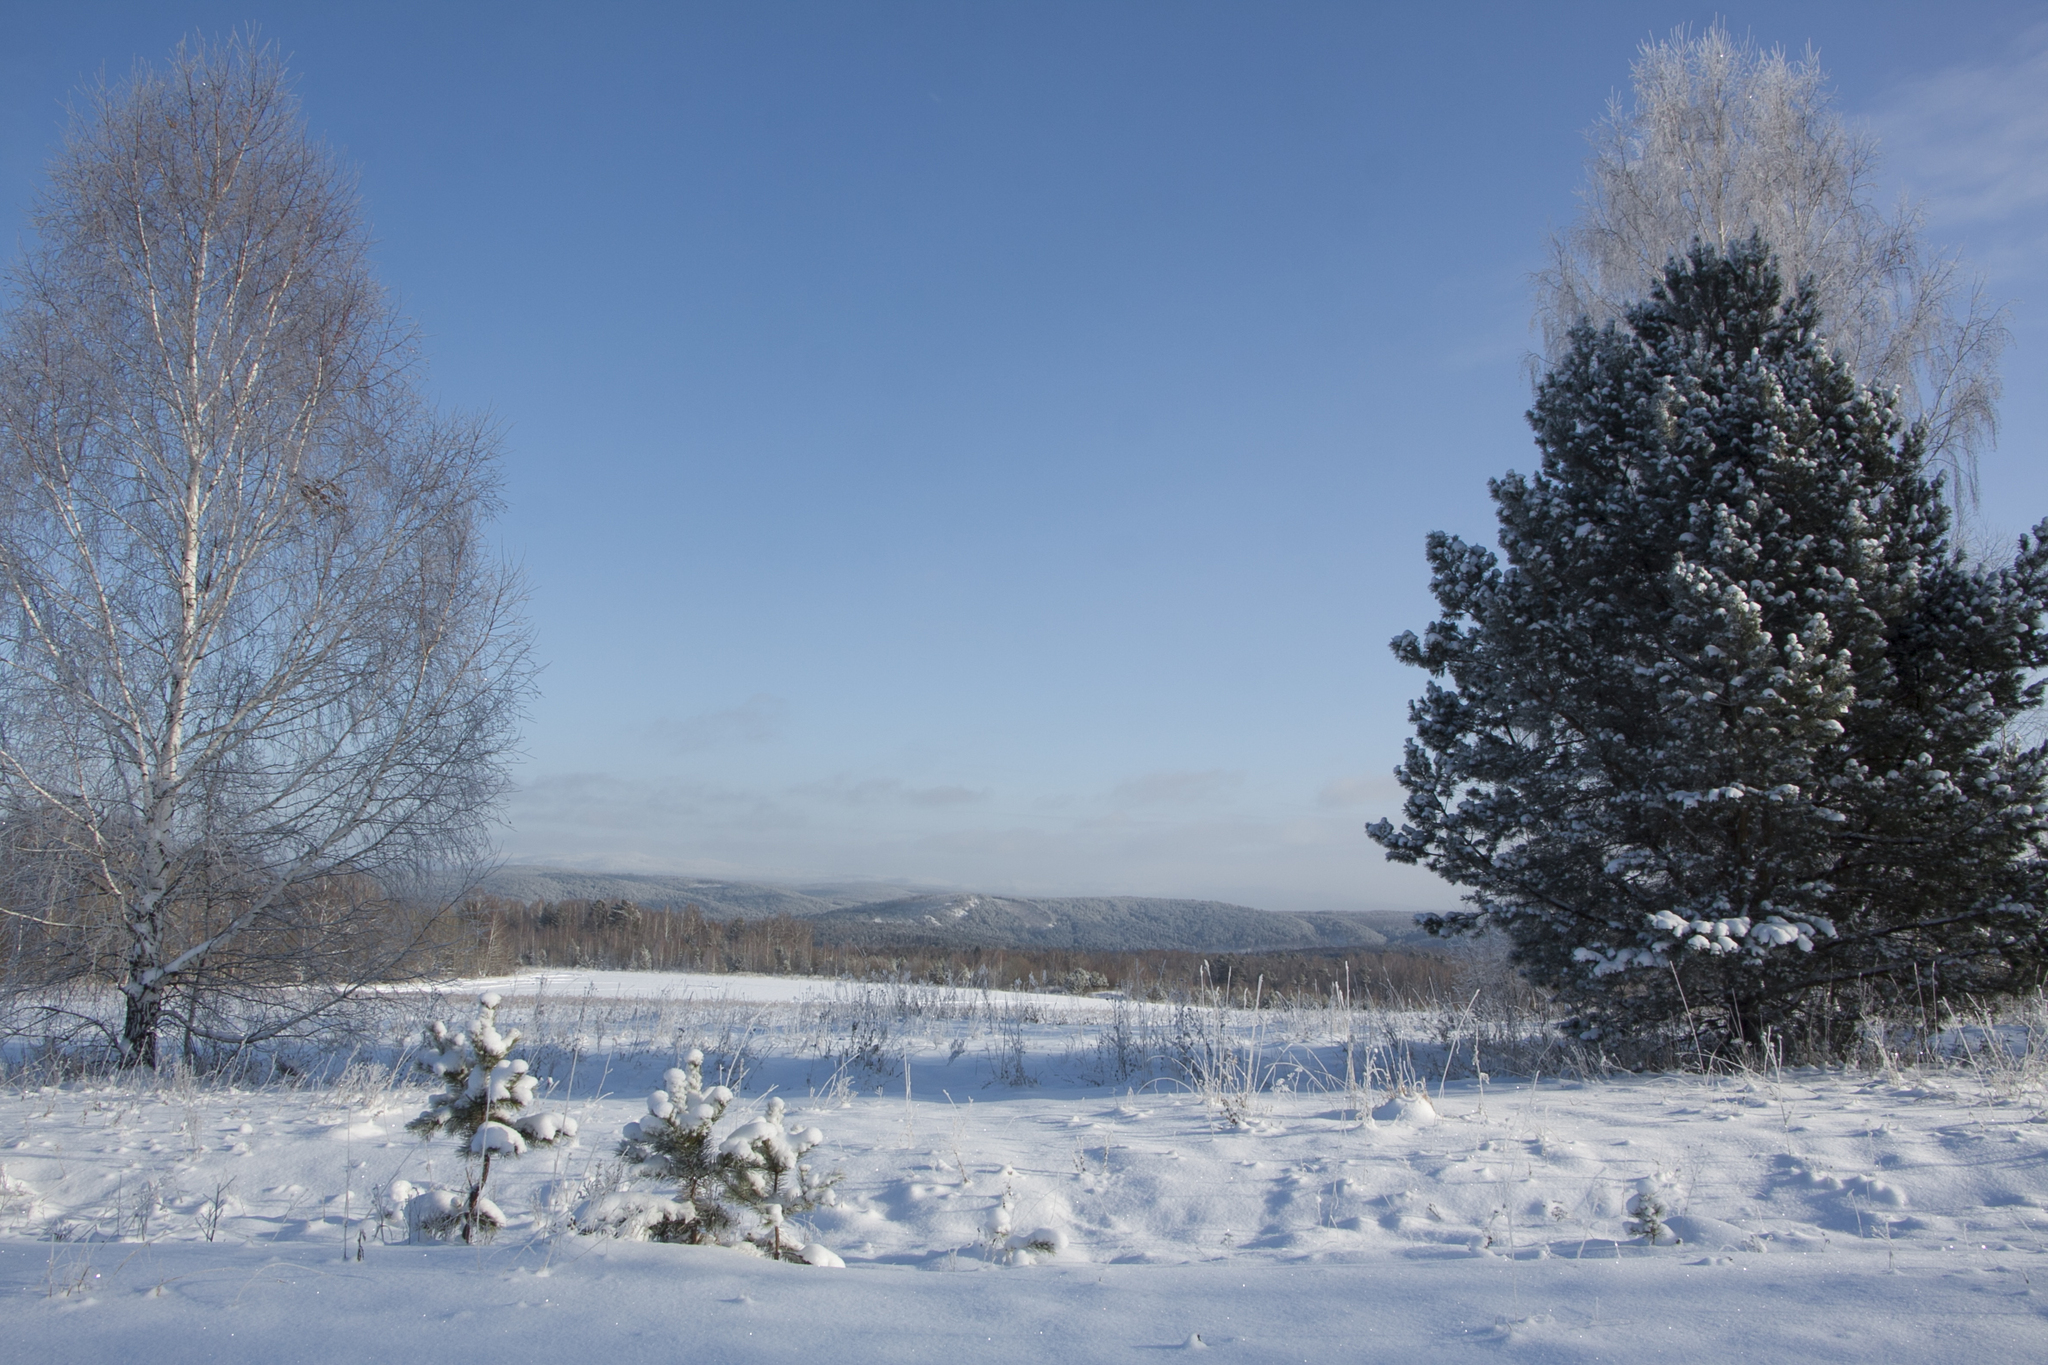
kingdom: Plantae
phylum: Tracheophyta
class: Pinopsida
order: Pinales
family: Pinaceae
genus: Pinus
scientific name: Pinus sylvestris
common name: Scots pine
